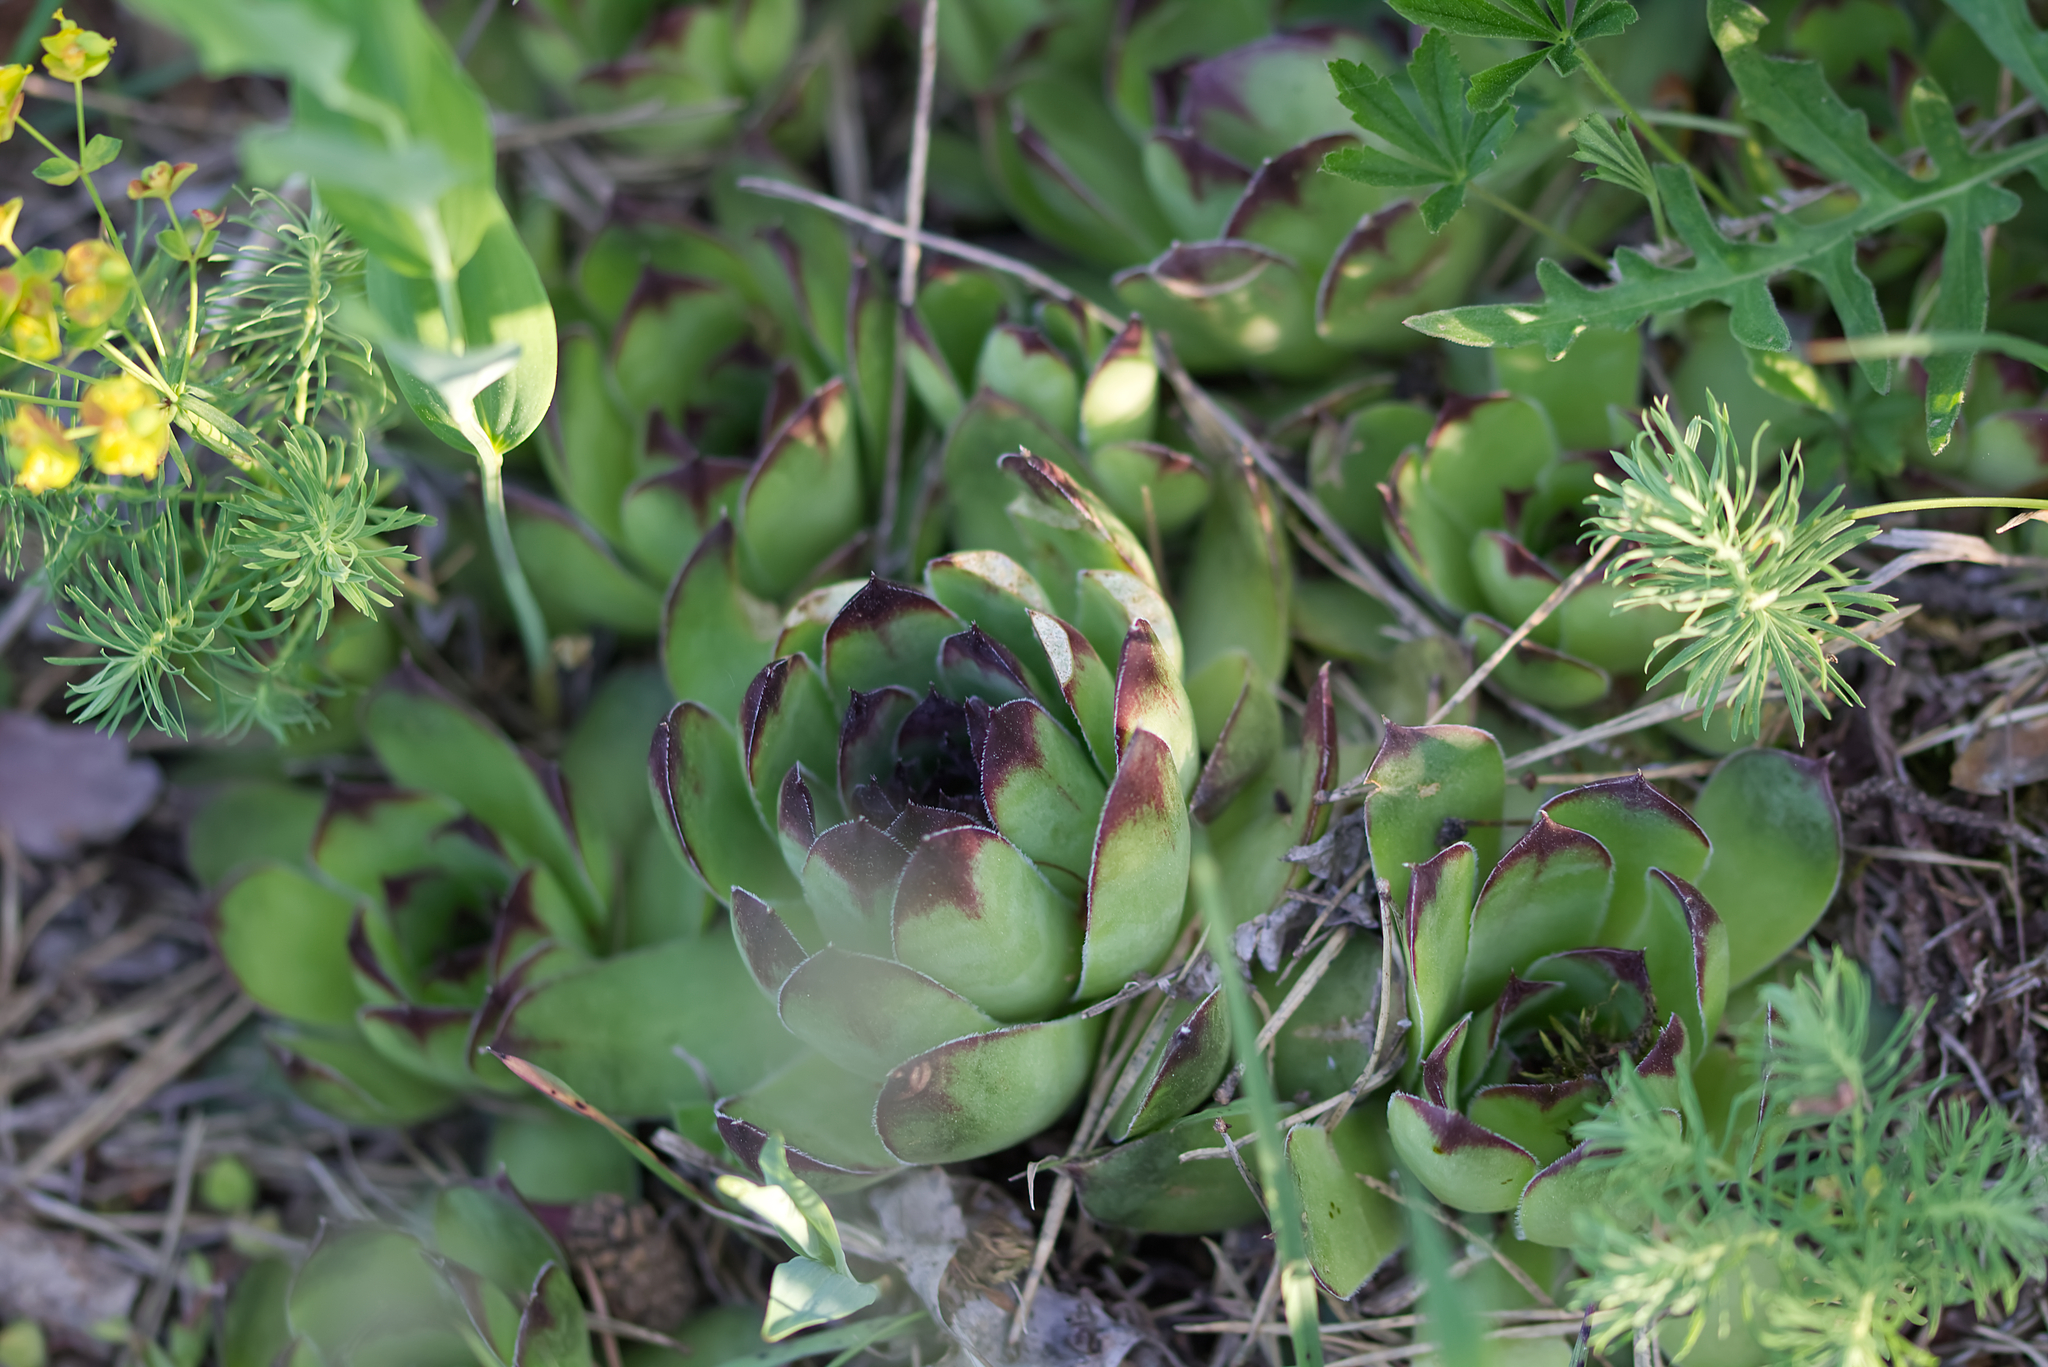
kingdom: Plantae
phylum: Tracheophyta
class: Magnoliopsida
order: Saxifragales
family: Crassulaceae
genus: Sempervivum
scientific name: Sempervivum tectorum
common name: House-leek
